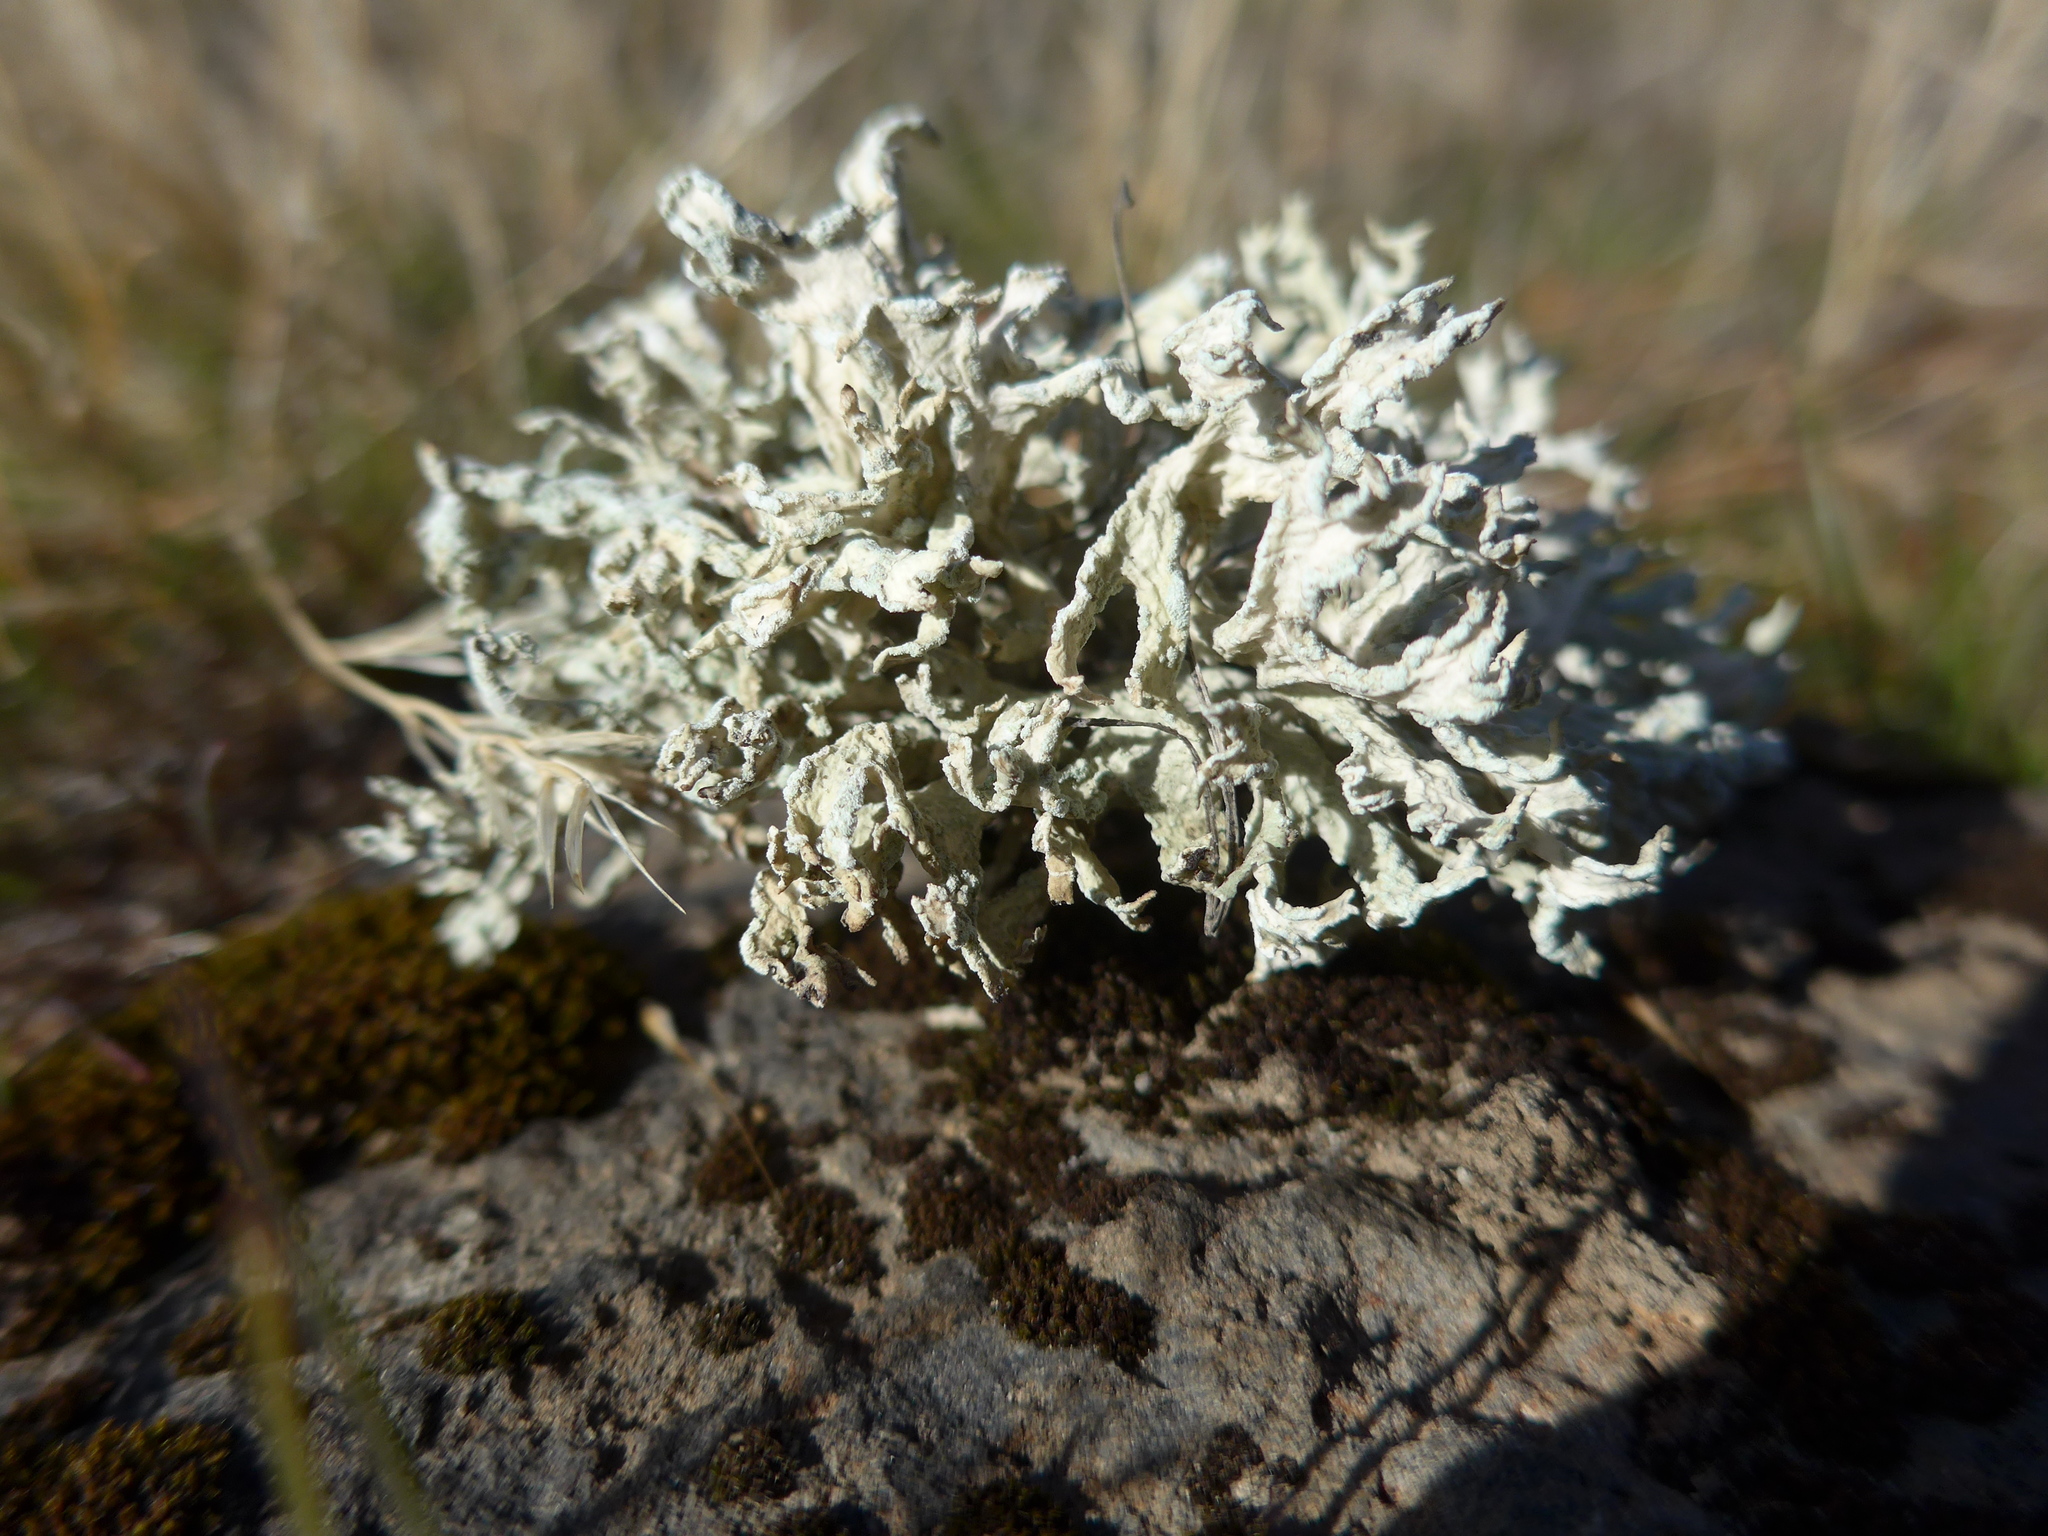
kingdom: Fungi
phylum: Ascomycota
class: Lecanoromycetes
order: Lecanorales
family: Parmeliaceae
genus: Evernia
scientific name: Evernia prunastri
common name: Oak moss
